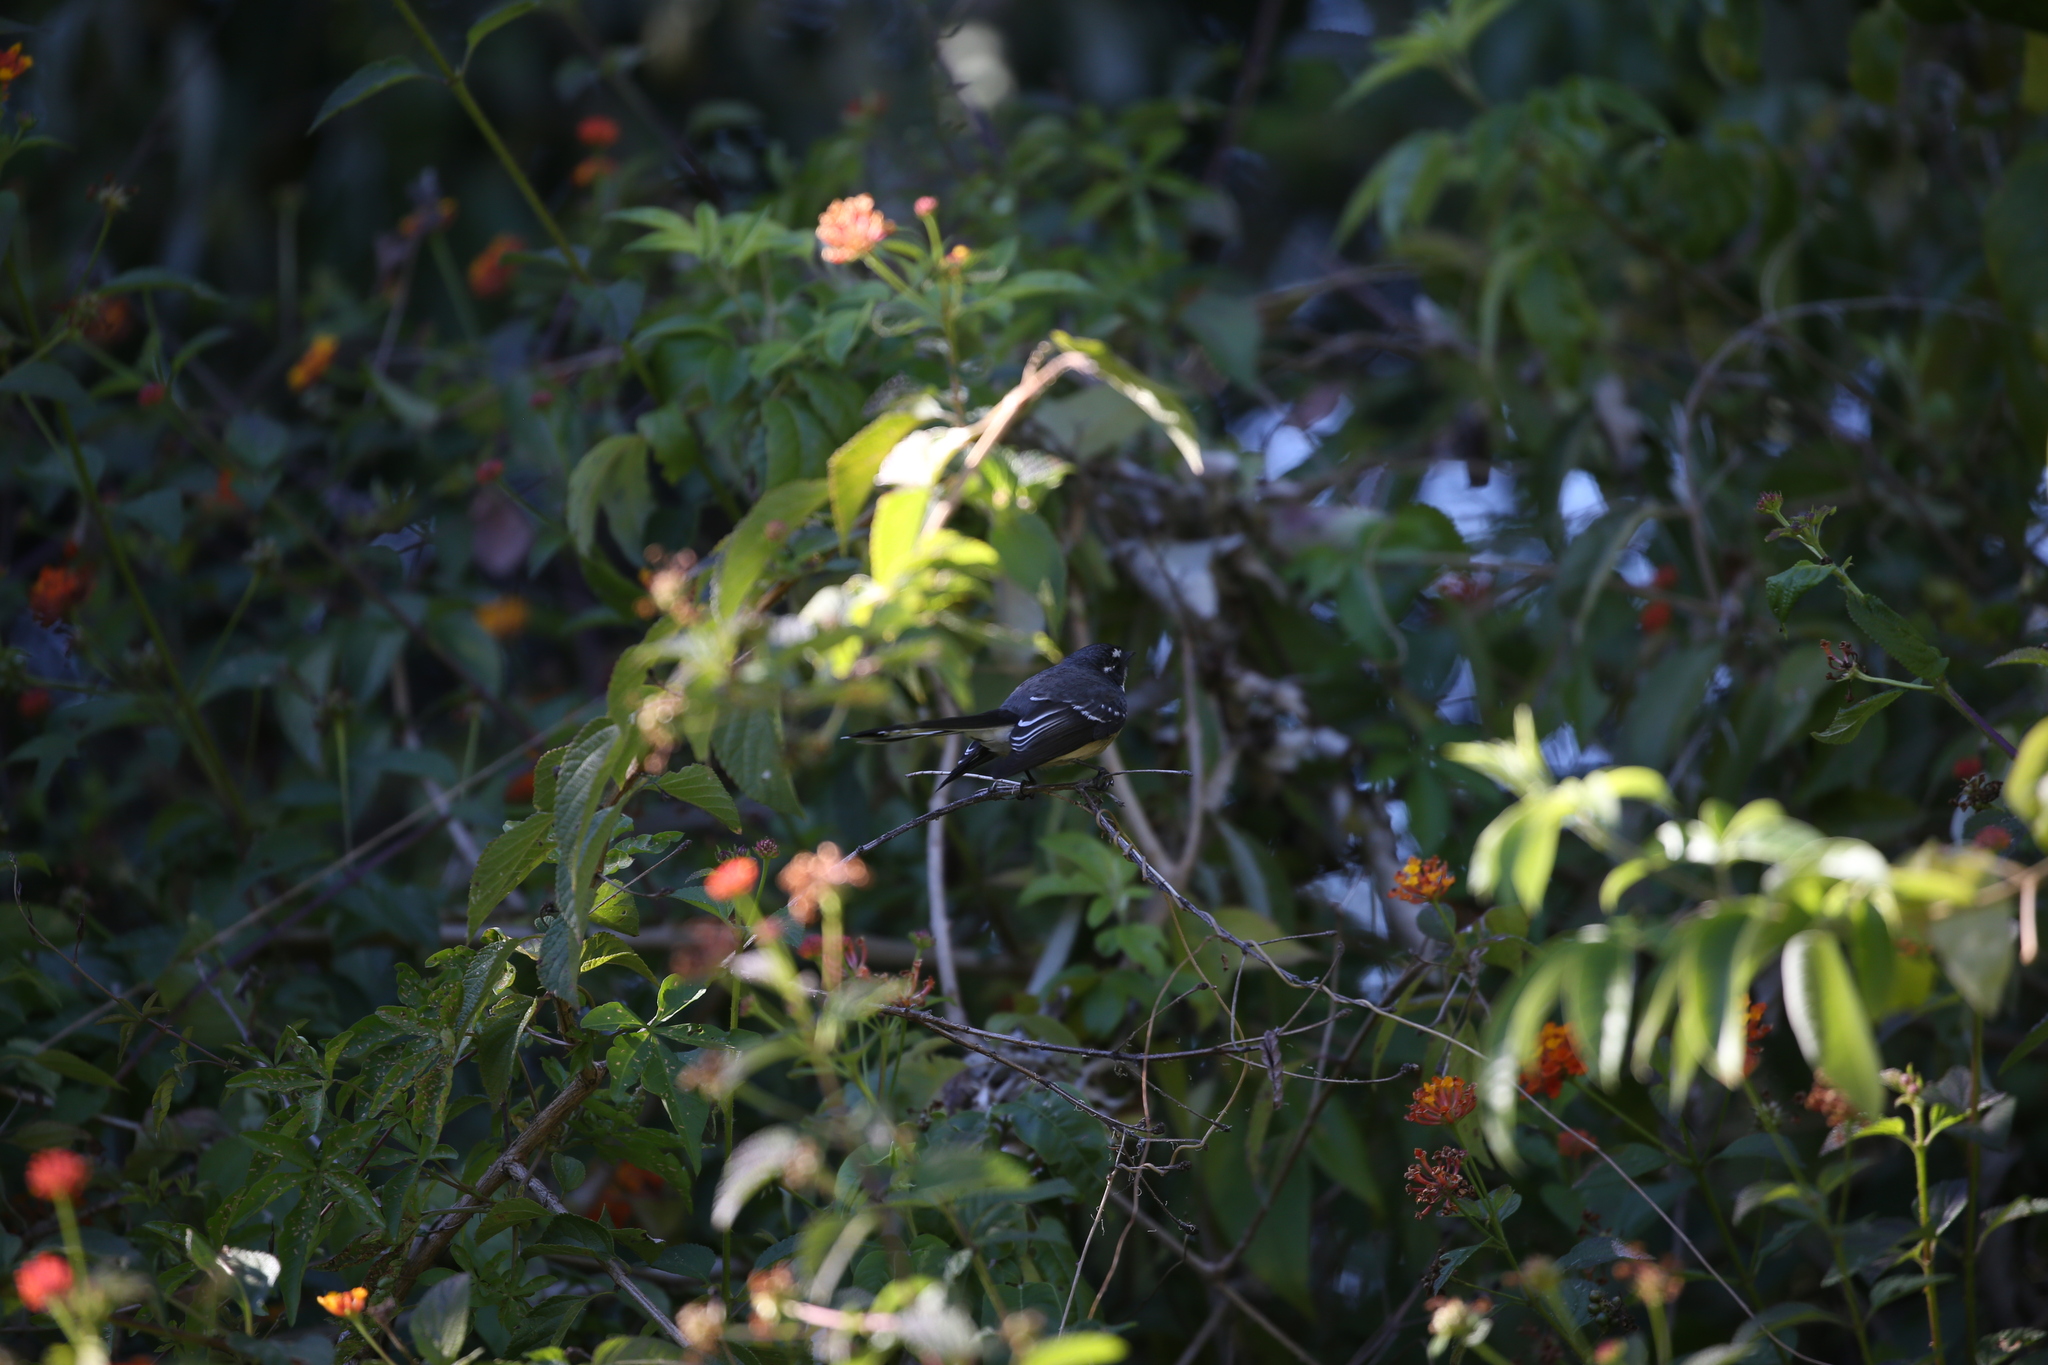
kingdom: Animalia
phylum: Chordata
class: Aves
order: Passeriformes
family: Rhipiduridae
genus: Rhipidura
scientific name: Rhipidura albiscapa
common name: Grey fantail
